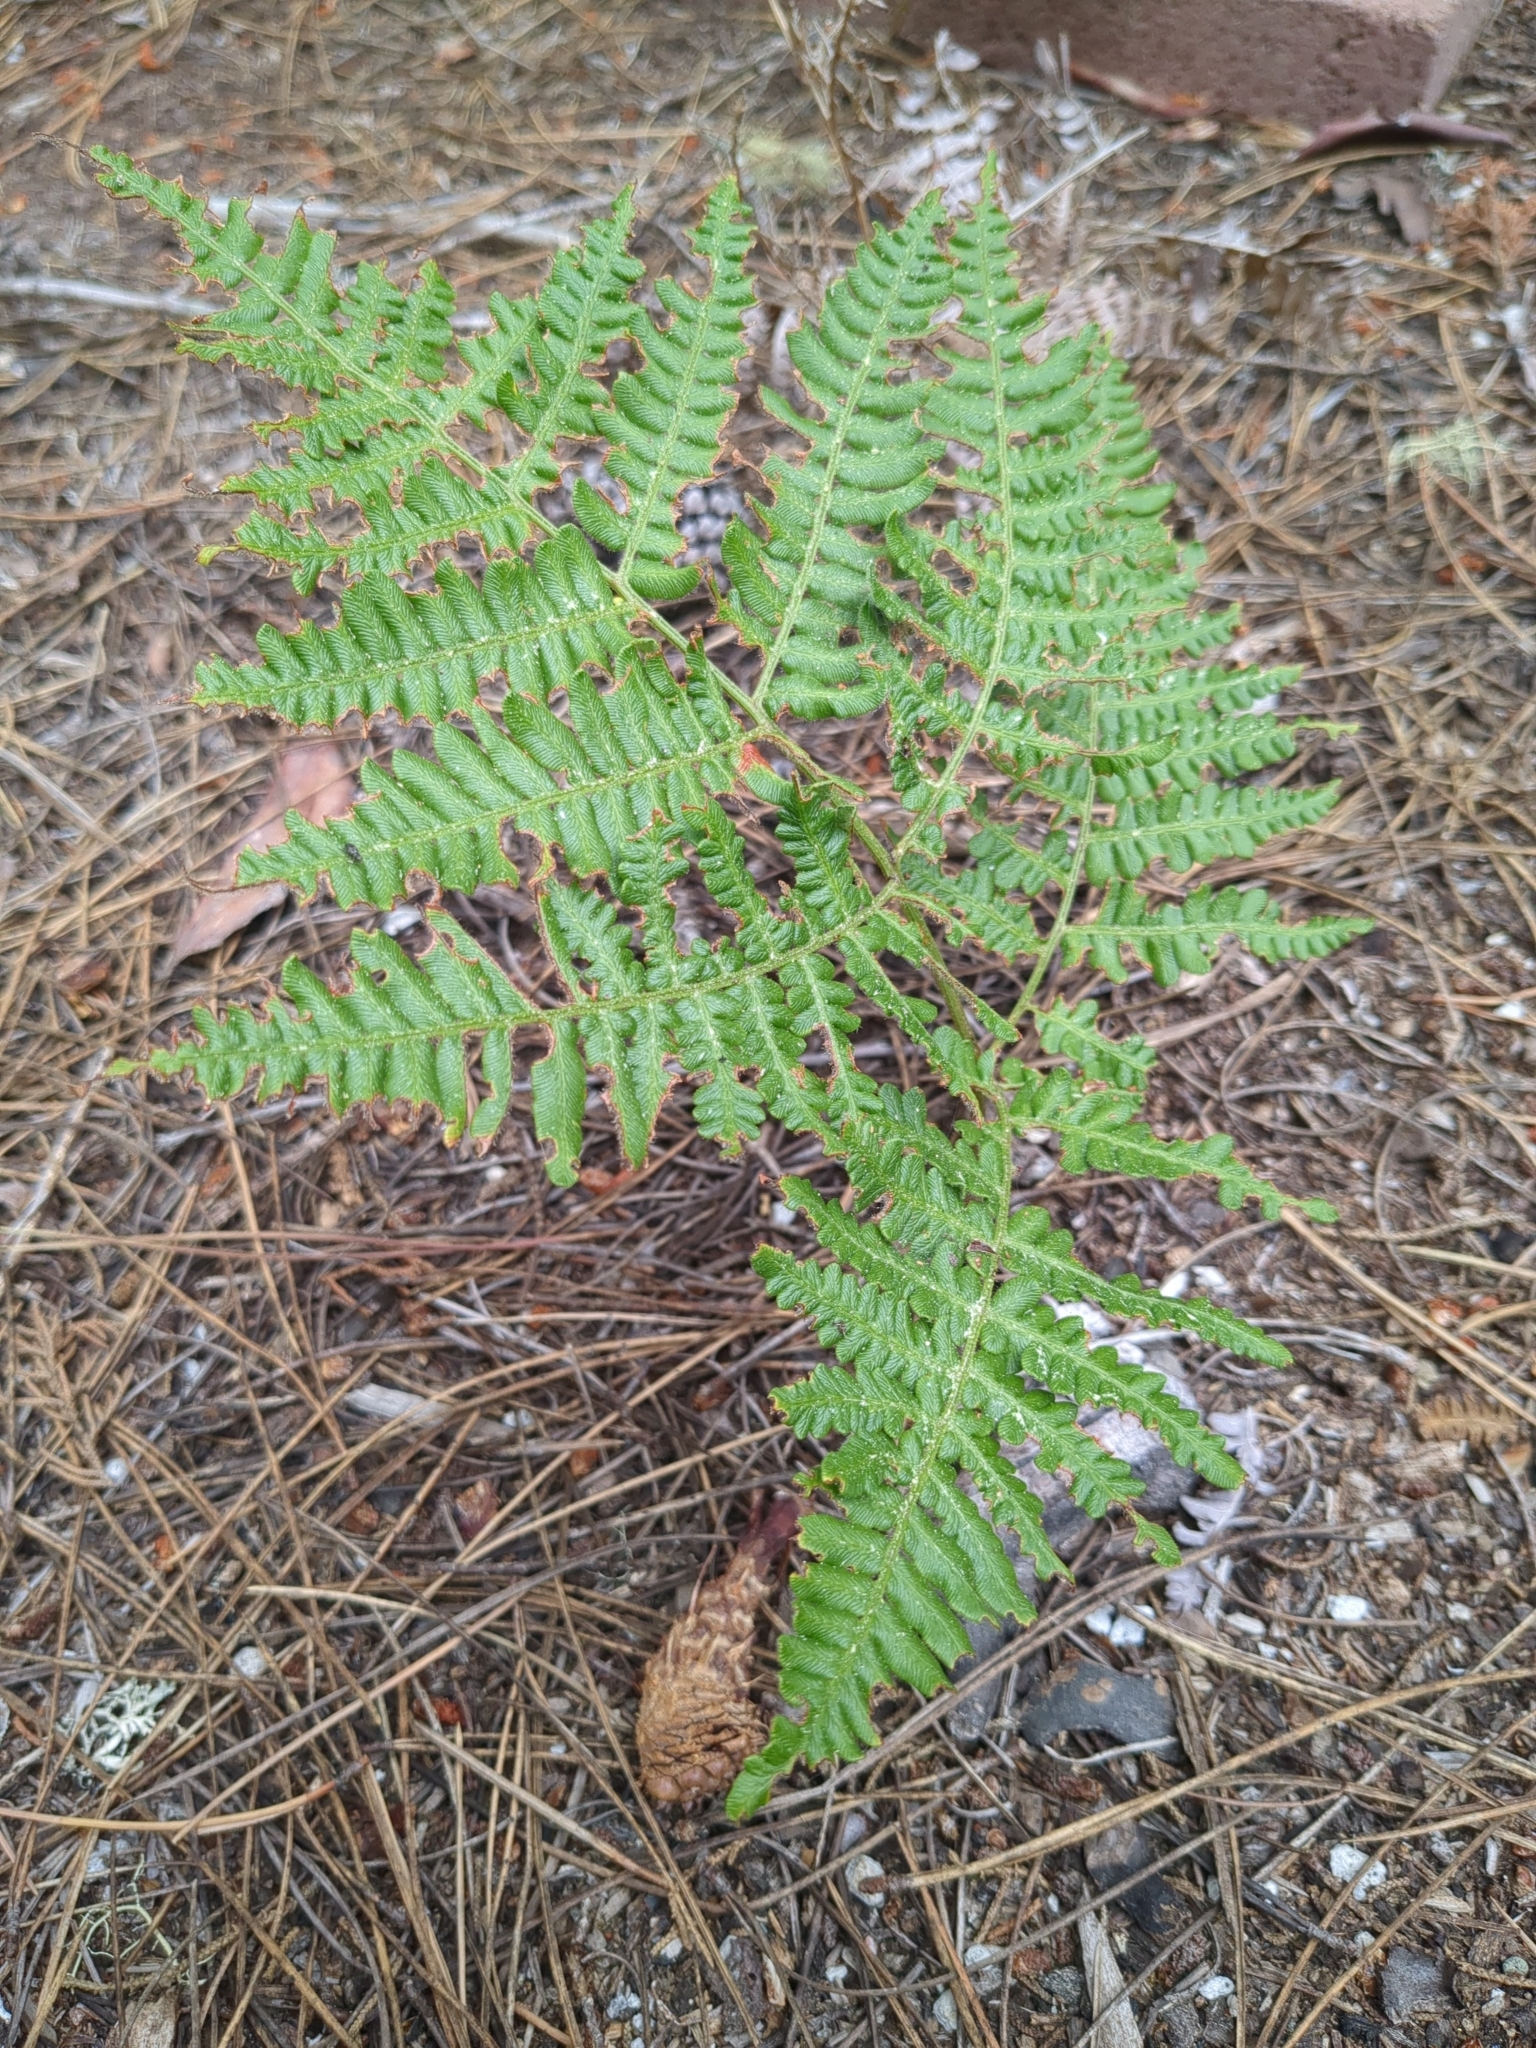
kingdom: Plantae
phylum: Tracheophyta
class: Polypodiopsida
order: Polypodiales
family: Dennstaedtiaceae
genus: Pteridium
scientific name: Pteridium aquilinum
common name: Bracken
